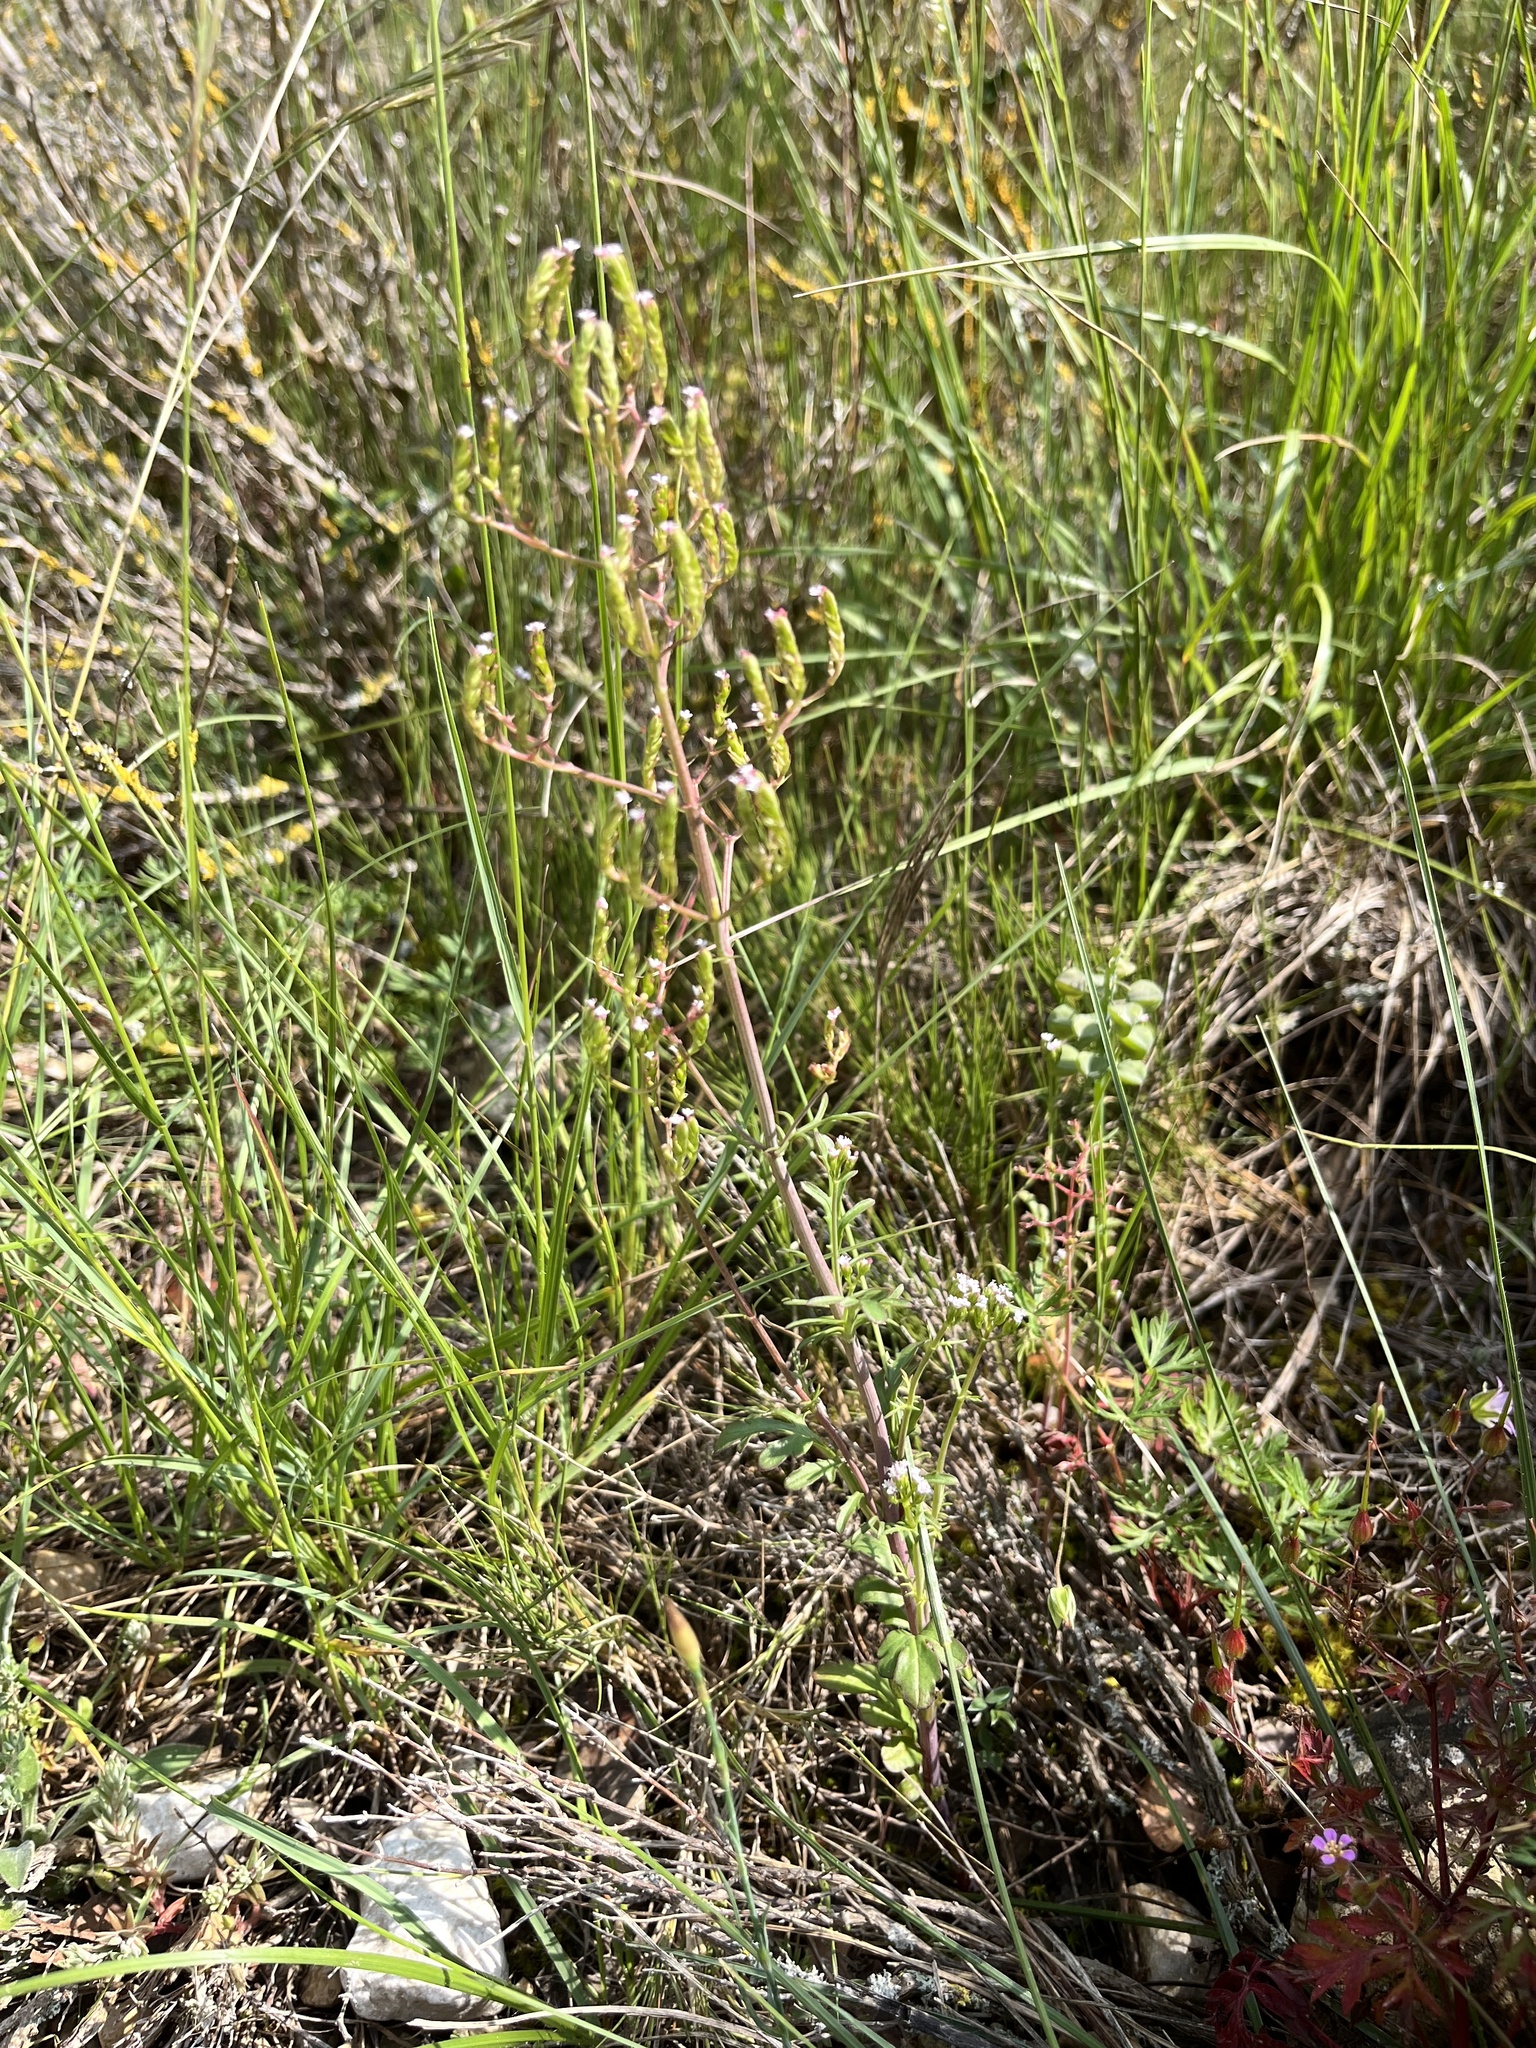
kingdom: Plantae
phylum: Tracheophyta
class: Magnoliopsida
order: Dipsacales
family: Caprifoliaceae
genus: Centranthus
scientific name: Centranthus calcitrapae
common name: Annual valerian
